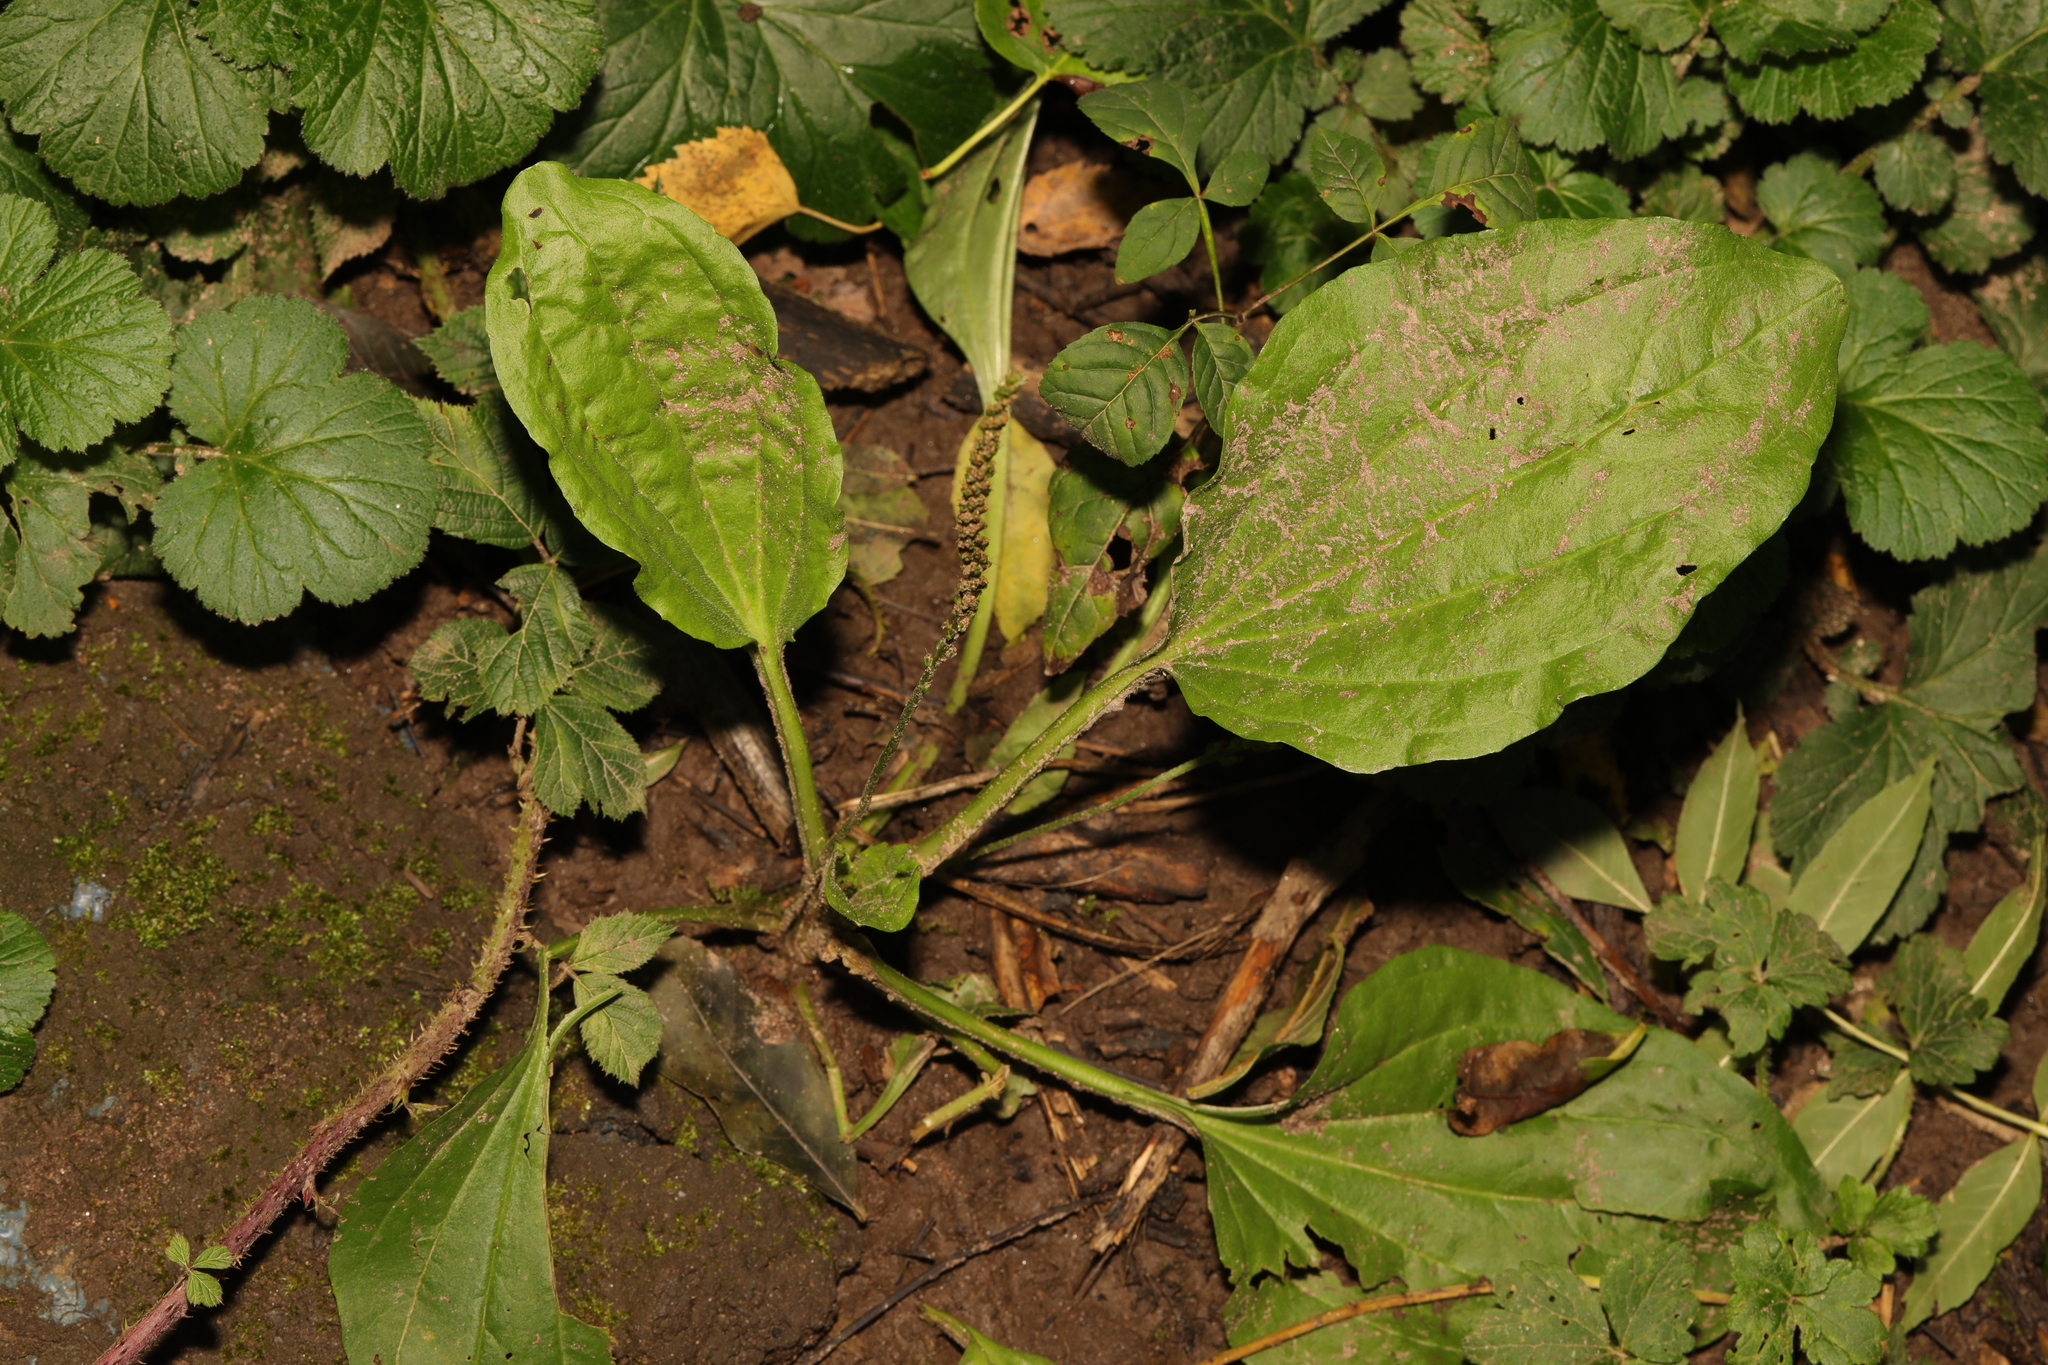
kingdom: Plantae
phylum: Tracheophyta
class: Magnoliopsida
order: Lamiales
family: Plantaginaceae
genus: Plantago
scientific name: Plantago major
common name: Common plantain
